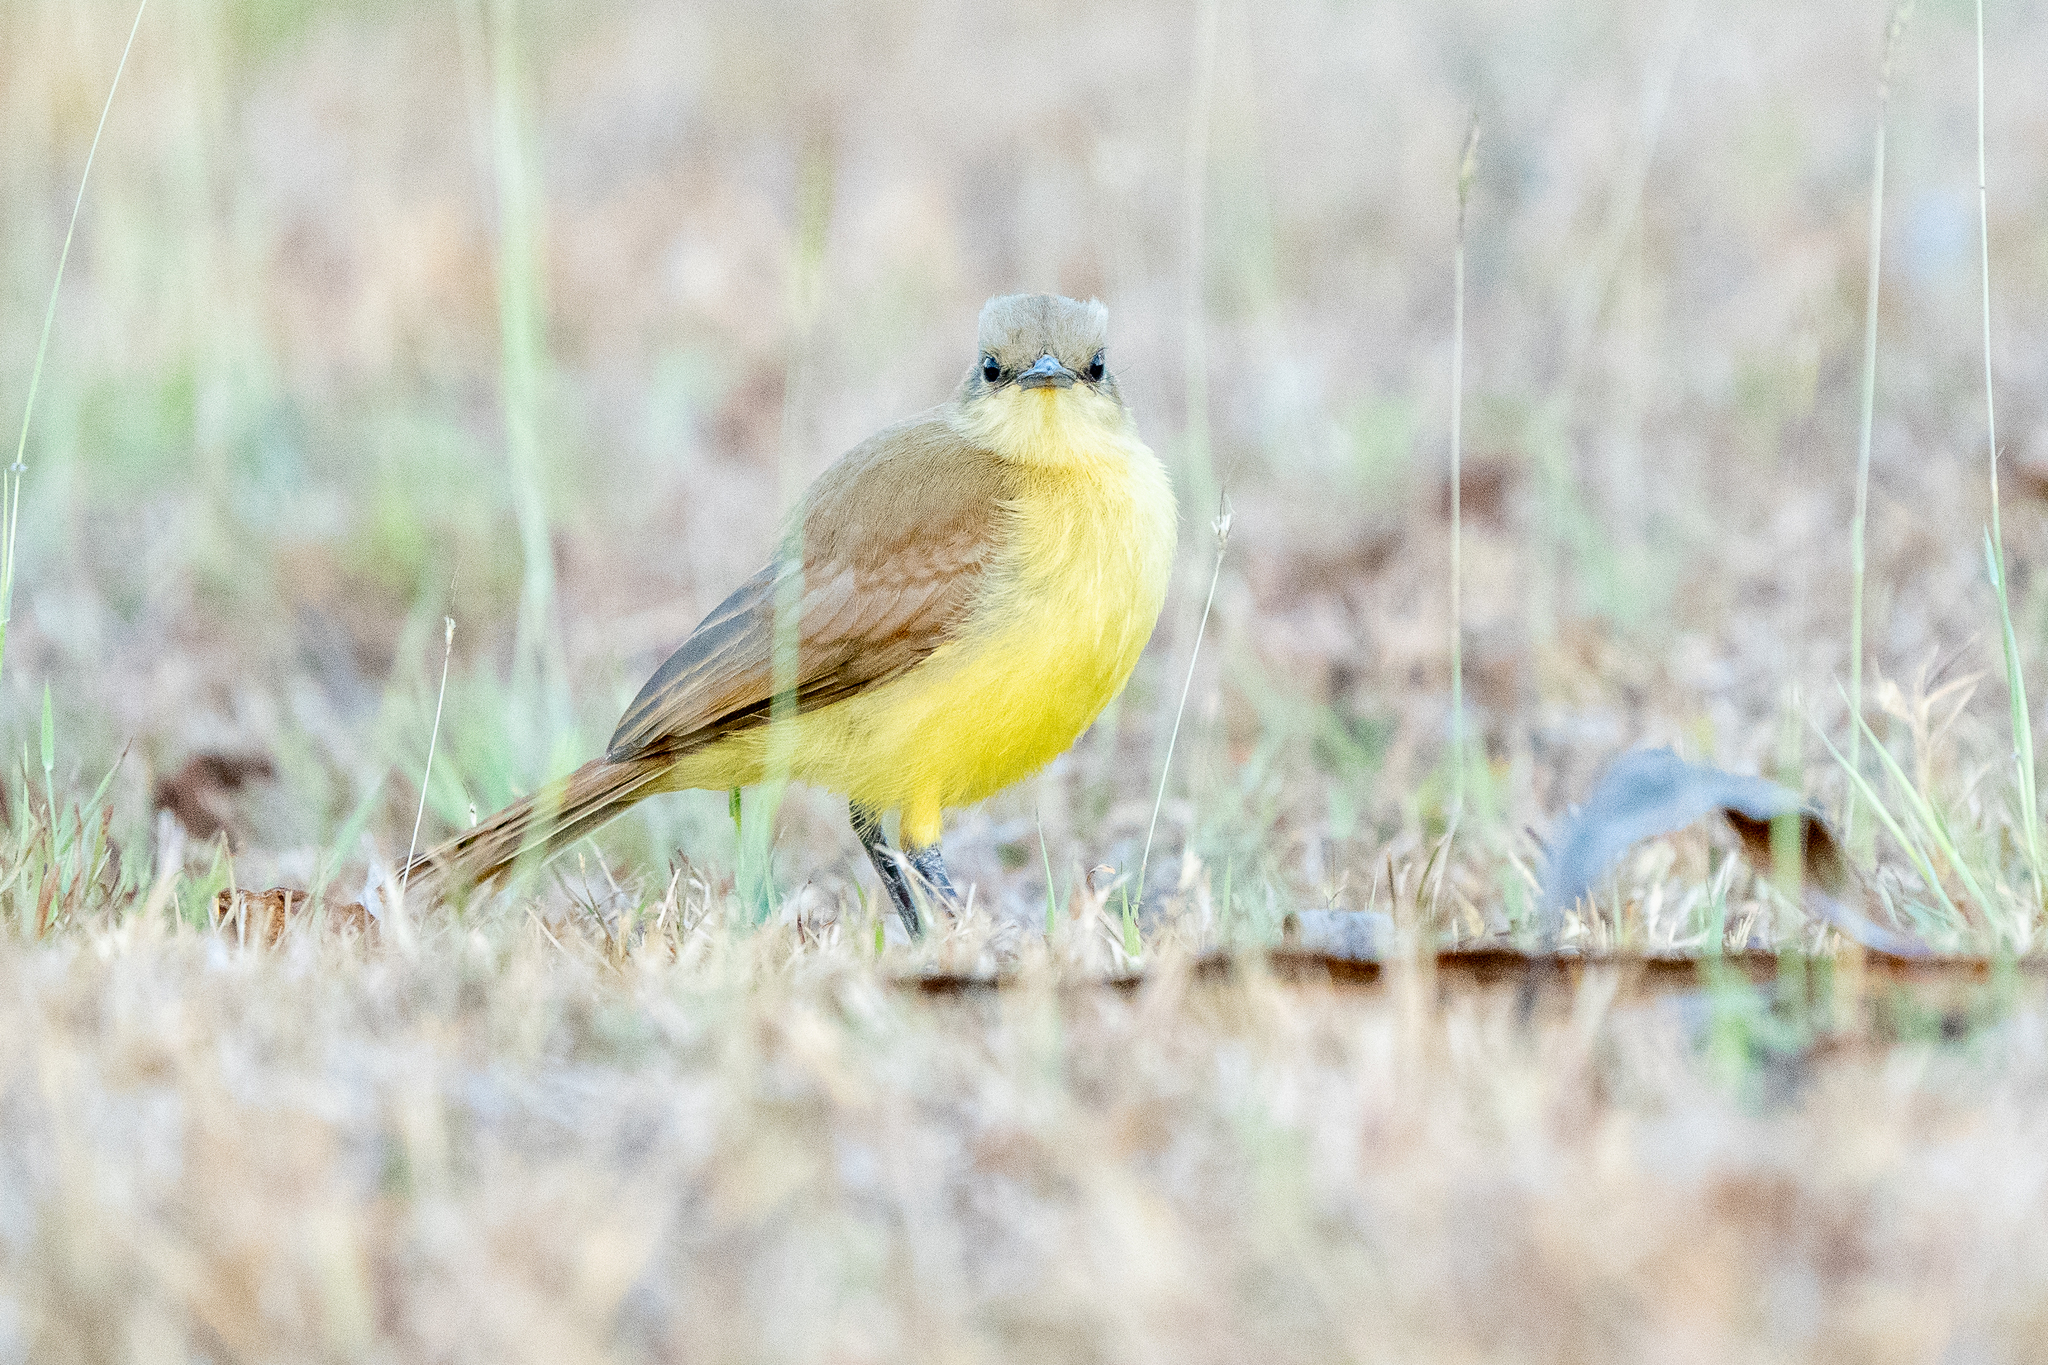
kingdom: Animalia
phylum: Chordata
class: Aves
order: Passeriformes
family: Tyrannidae
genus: Machetornis
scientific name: Machetornis rixosa
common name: Cattle tyrant
